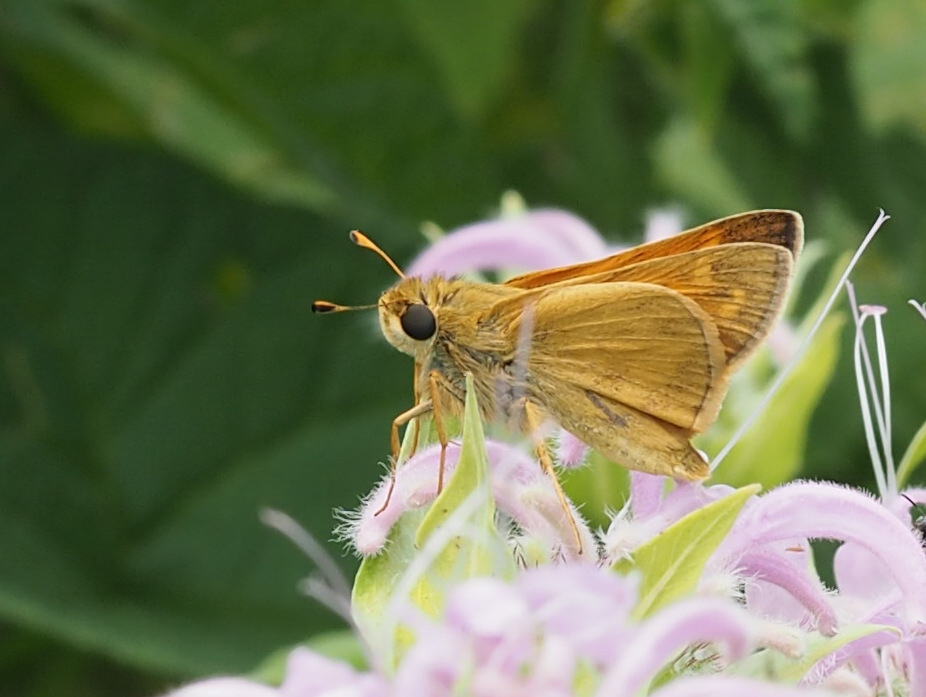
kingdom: Animalia
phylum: Arthropoda
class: Insecta
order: Lepidoptera
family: Hesperiidae
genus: Atalopedes
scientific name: Atalopedes
